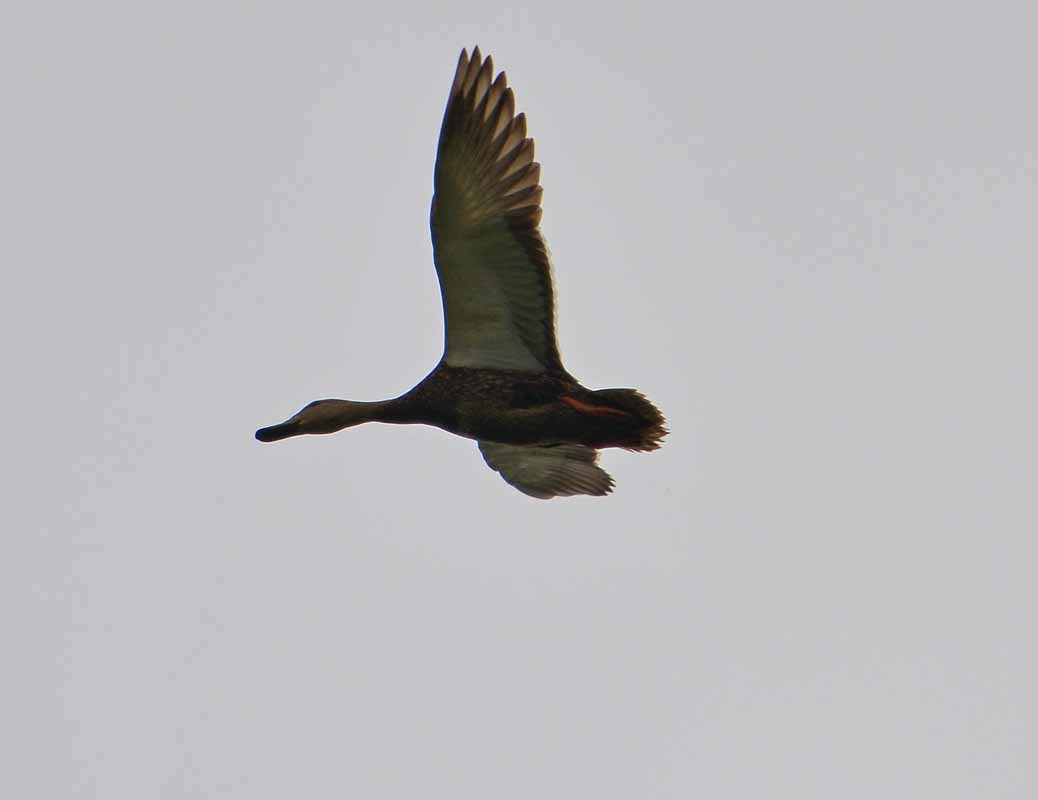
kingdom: Animalia
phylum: Chordata
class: Aves
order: Anseriformes
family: Anatidae
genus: Anas
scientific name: Anas diazi
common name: Mexican duck
